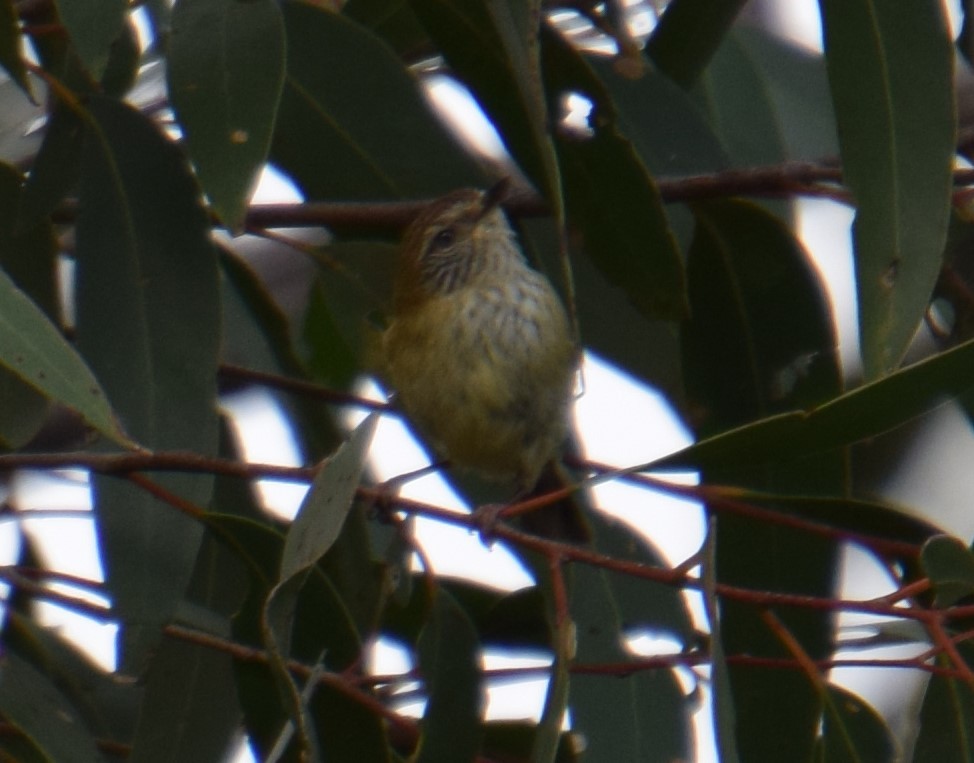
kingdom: Animalia
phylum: Chordata
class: Aves
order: Passeriformes
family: Acanthizidae
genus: Acanthiza
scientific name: Acanthiza lineata
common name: Striated thornbill
